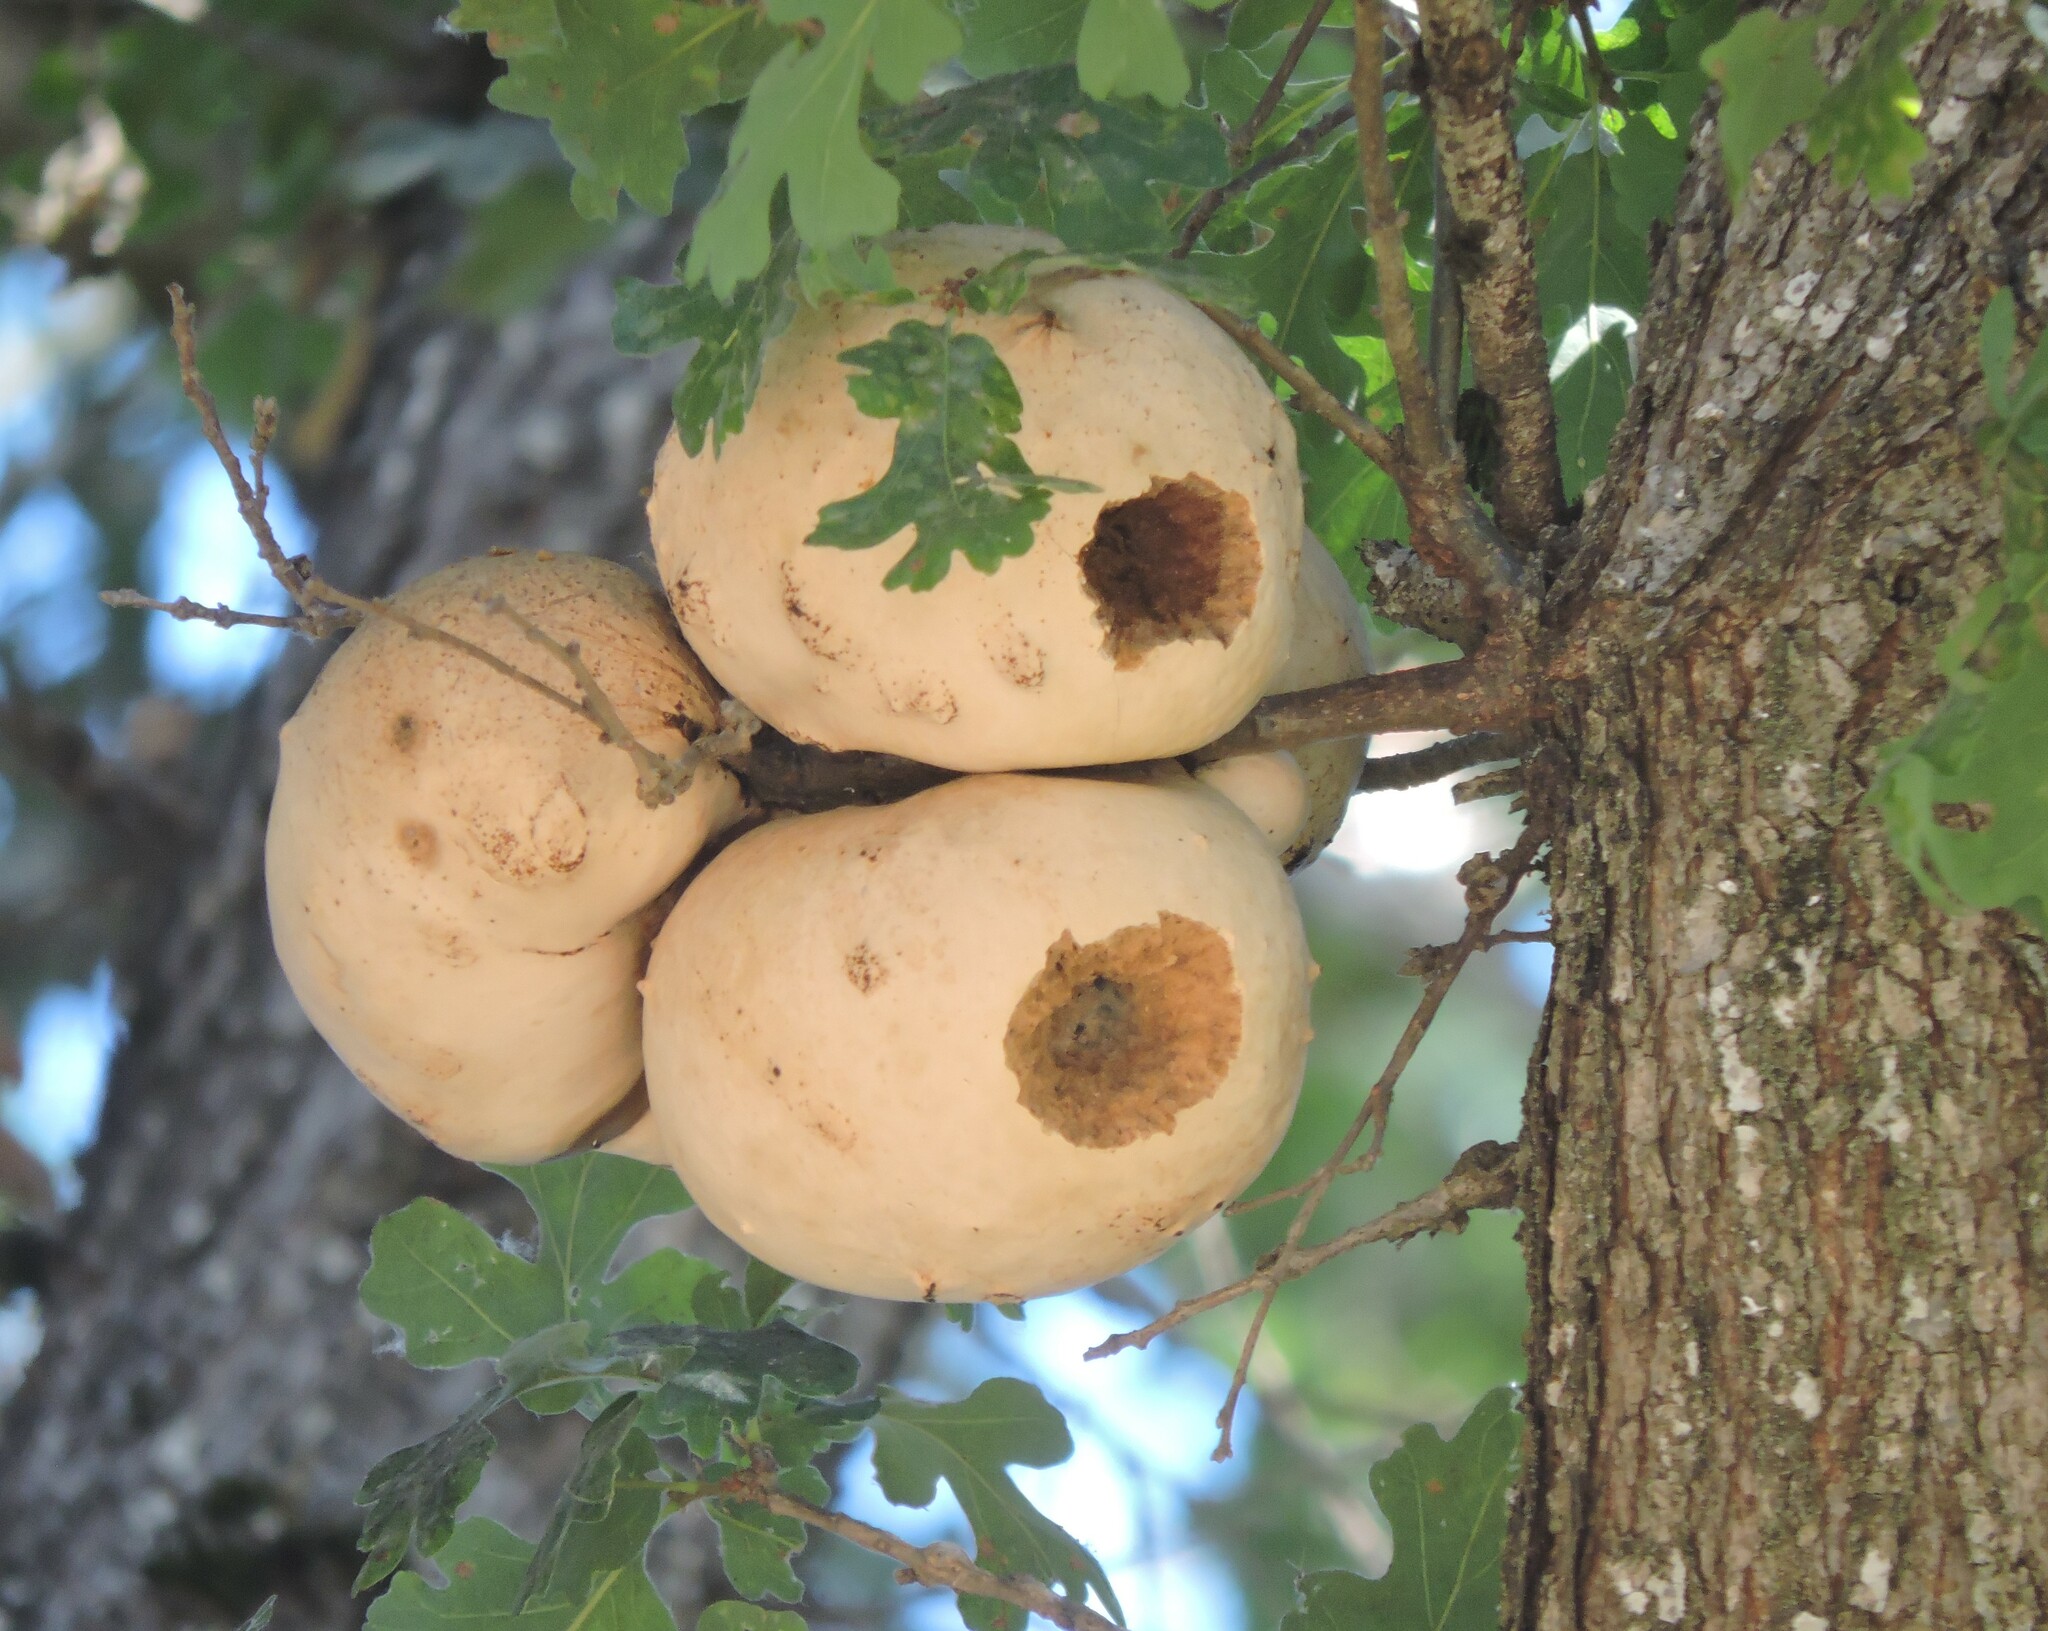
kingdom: Animalia
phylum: Arthropoda
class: Insecta
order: Hymenoptera
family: Cynipidae
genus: Andricus
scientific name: Andricus quercuscalifornicus
